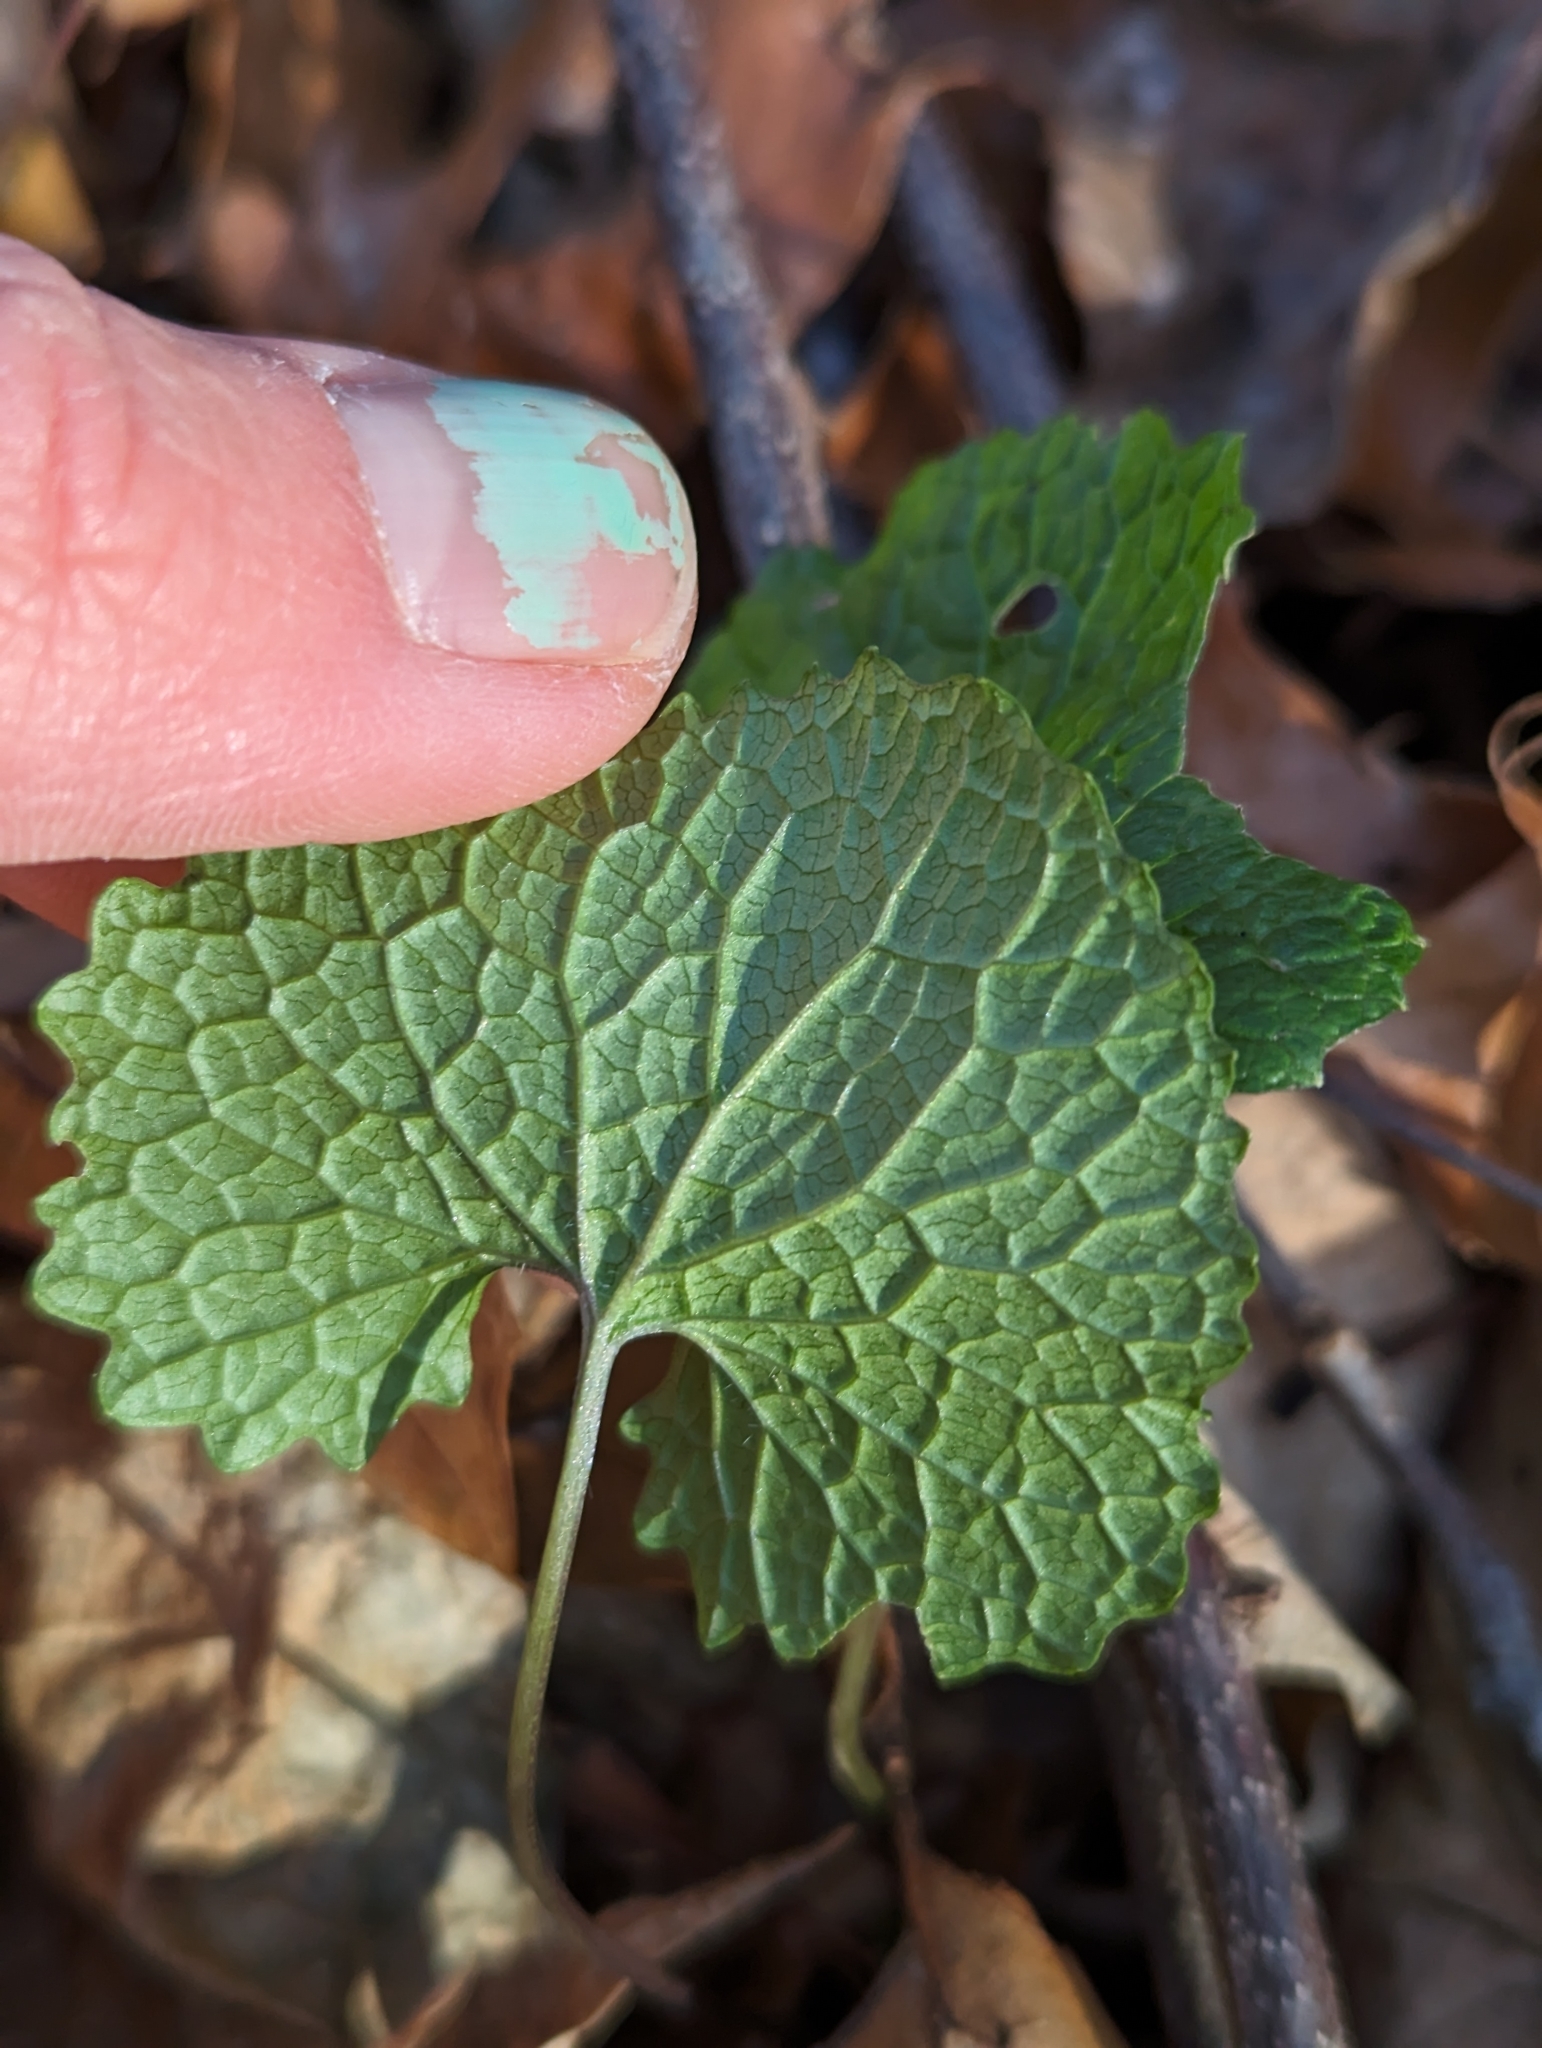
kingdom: Plantae
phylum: Tracheophyta
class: Magnoliopsida
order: Brassicales
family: Brassicaceae
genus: Alliaria
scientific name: Alliaria petiolata
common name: Garlic mustard
